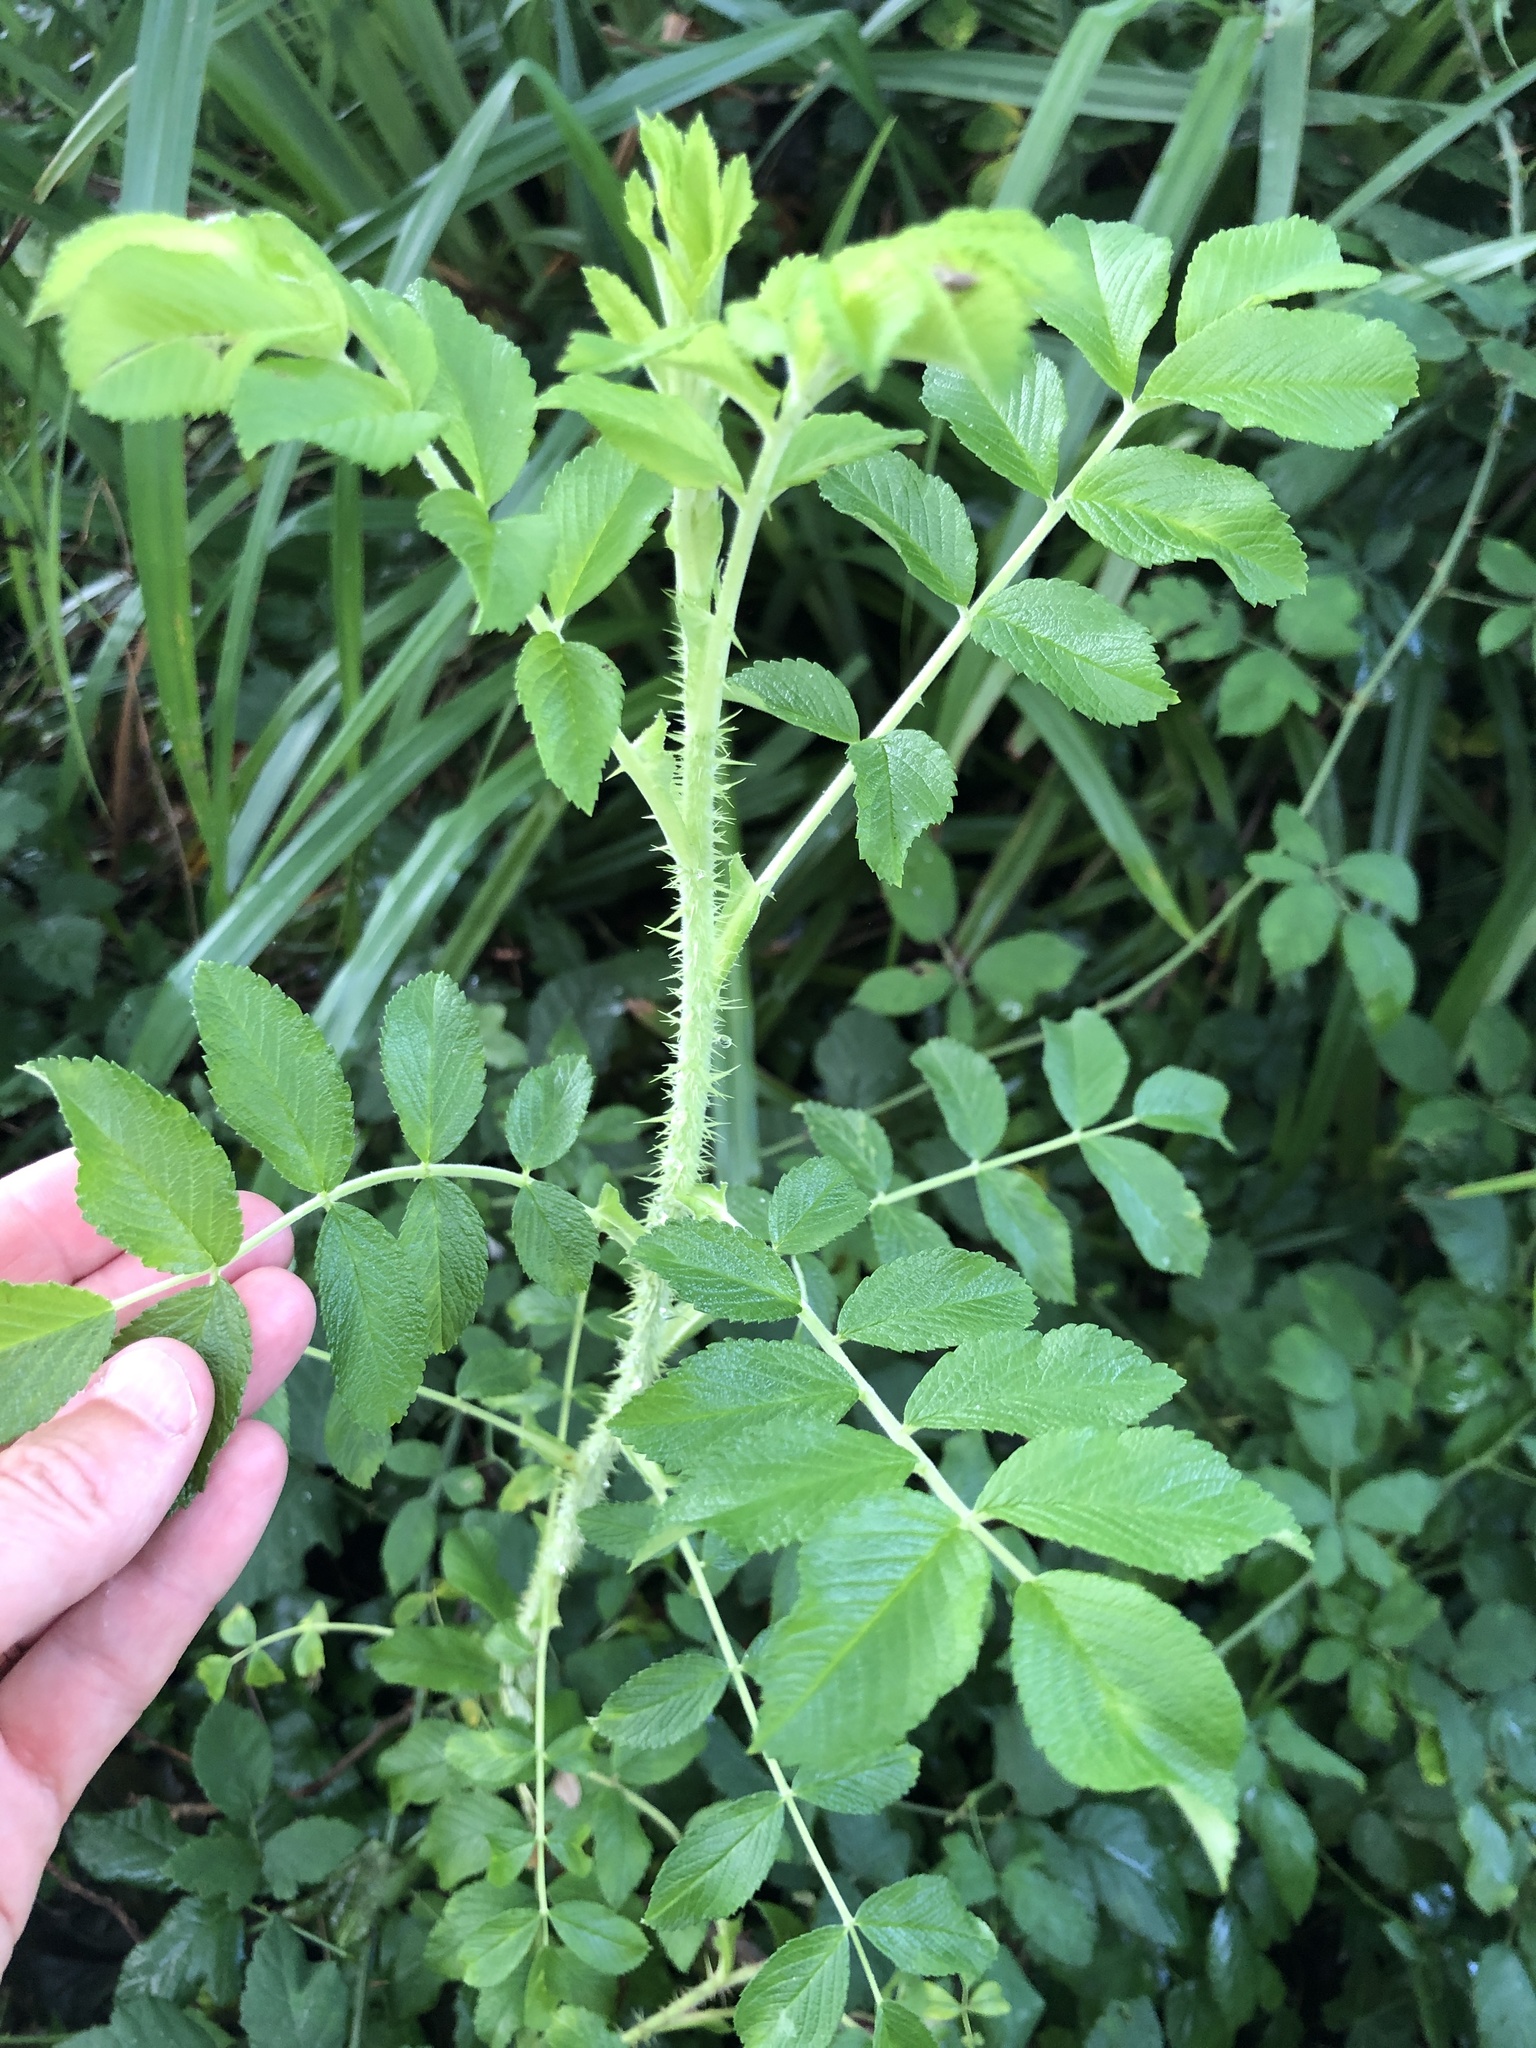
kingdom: Plantae
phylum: Tracheophyta
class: Magnoliopsida
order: Rosales
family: Rosaceae
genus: Rosa
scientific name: Rosa rugosa
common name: Japanese rose
